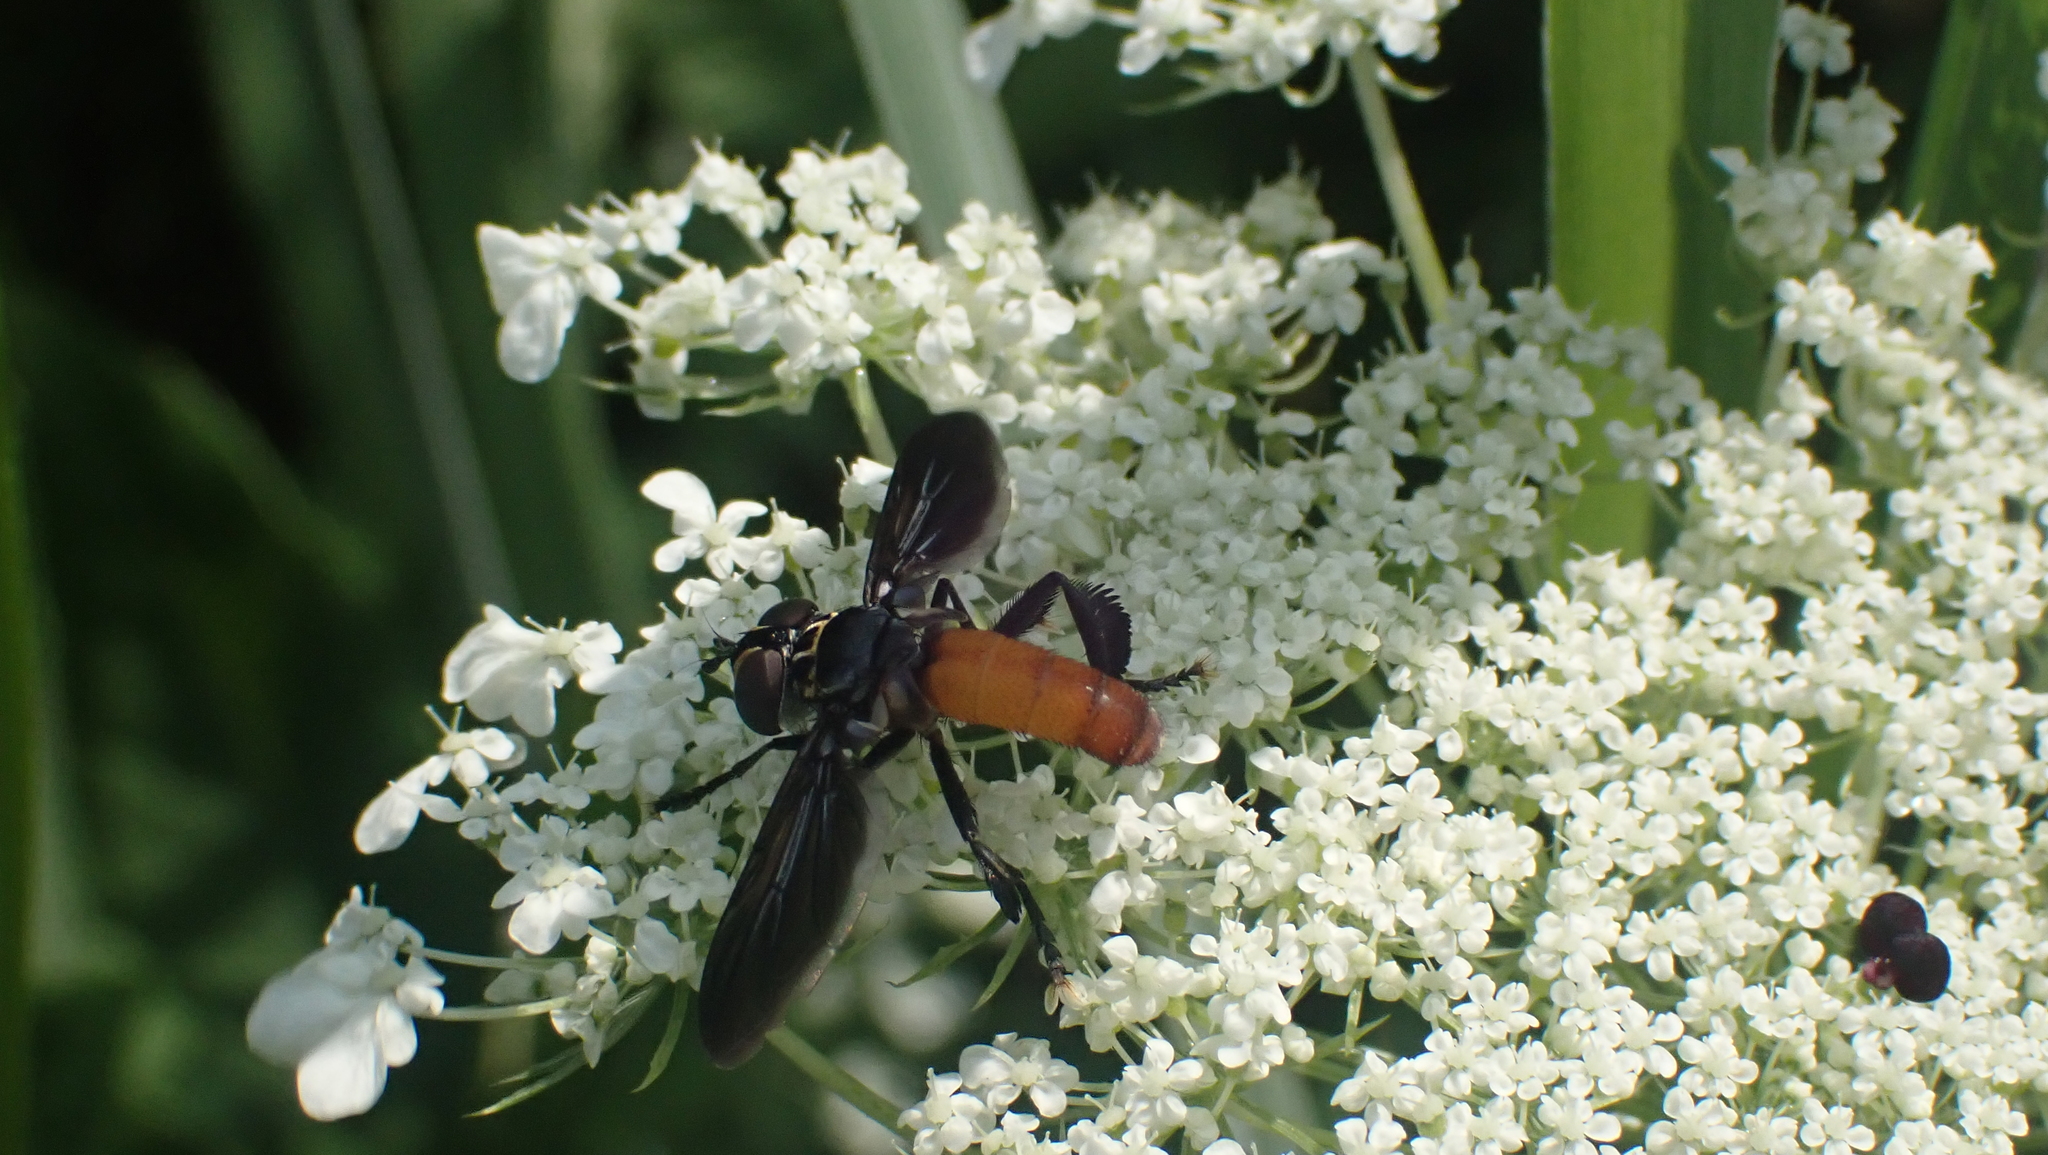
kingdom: Animalia
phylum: Arthropoda
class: Insecta
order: Diptera
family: Tachinidae
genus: Trichopoda
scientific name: Trichopoda pennipes
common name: Tachinid fly
